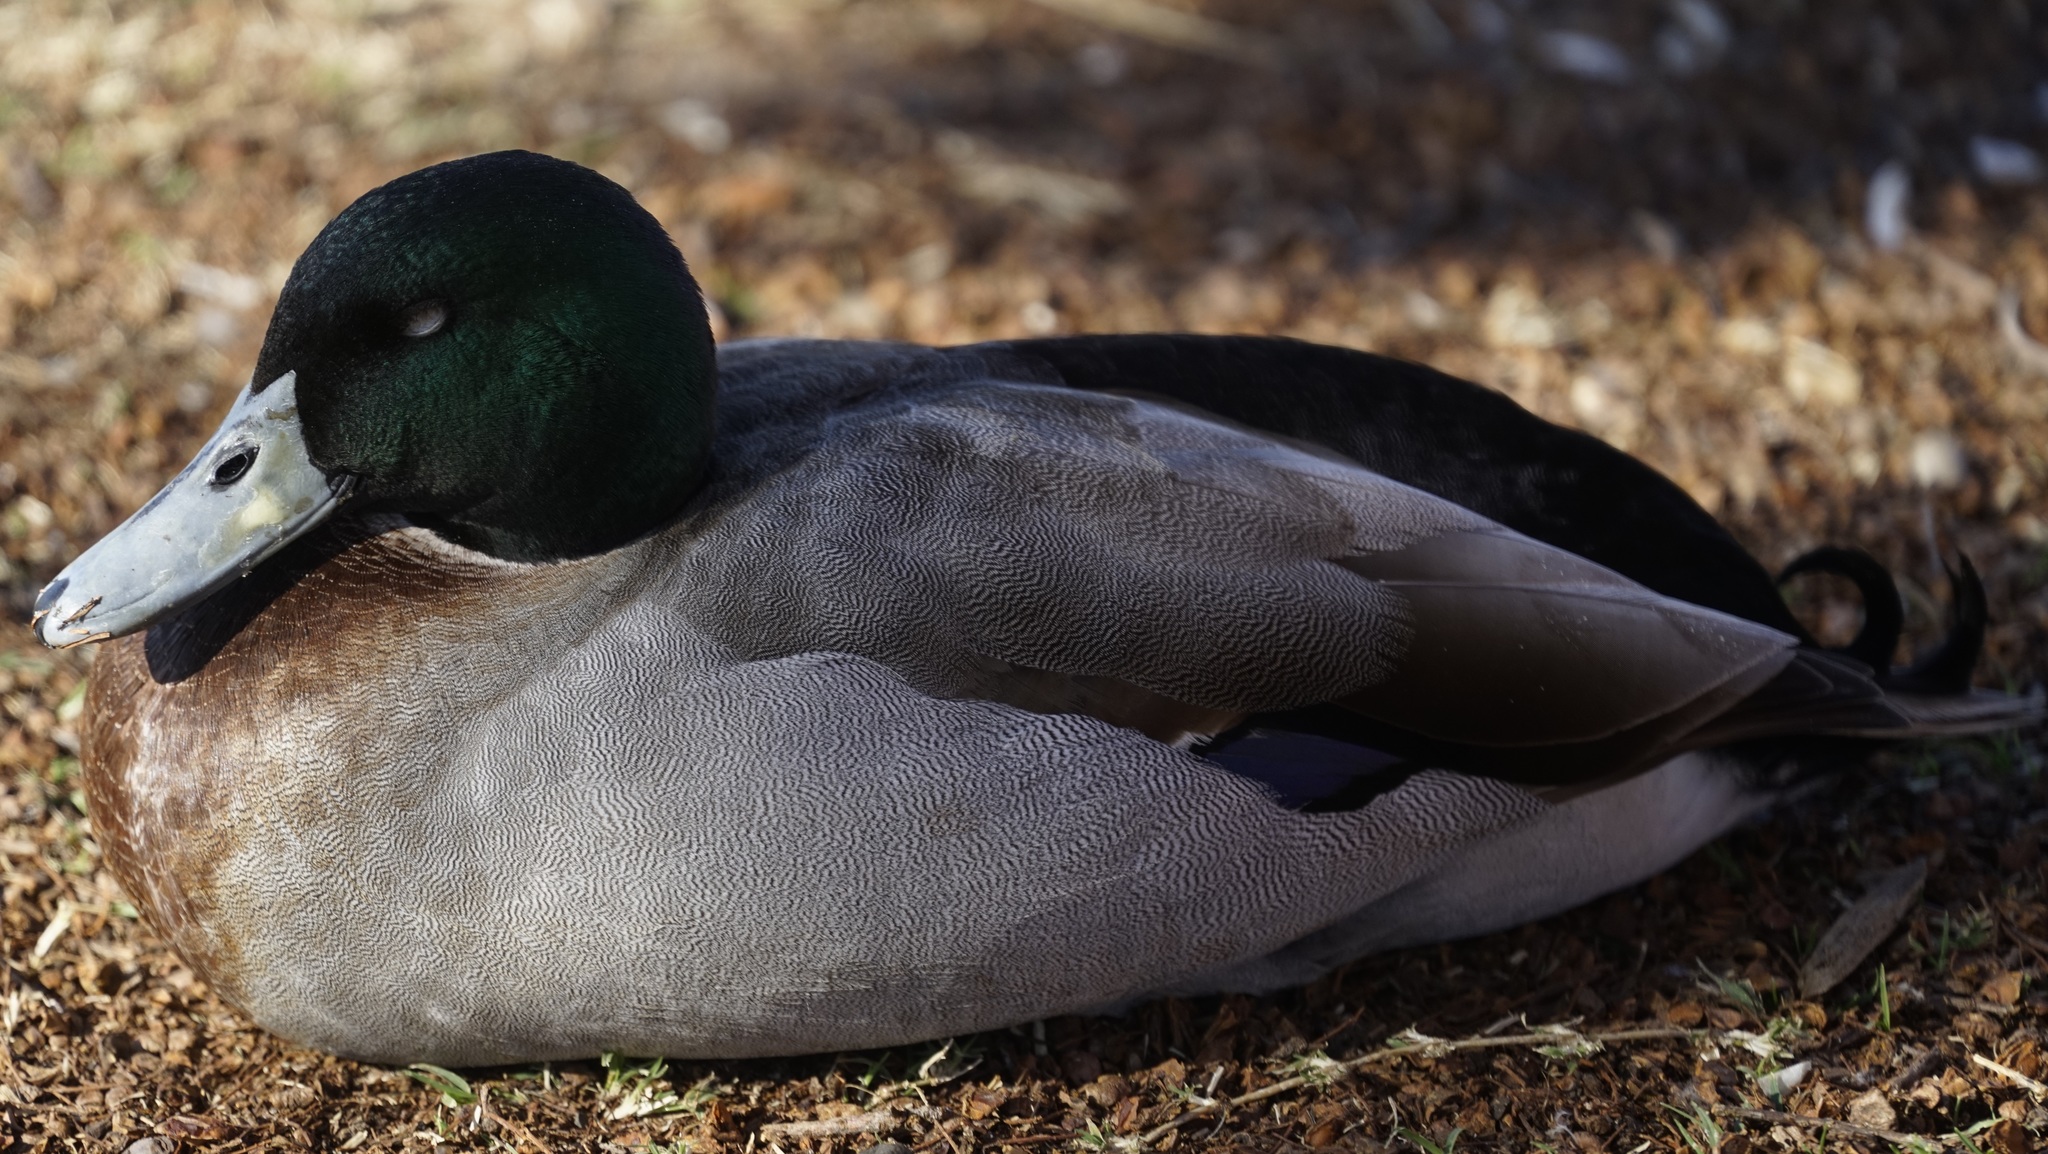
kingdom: Animalia
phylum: Chordata
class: Aves
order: Anseriformes
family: Anatidae
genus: Anas
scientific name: Anas platyrhynchos
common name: Mallard
